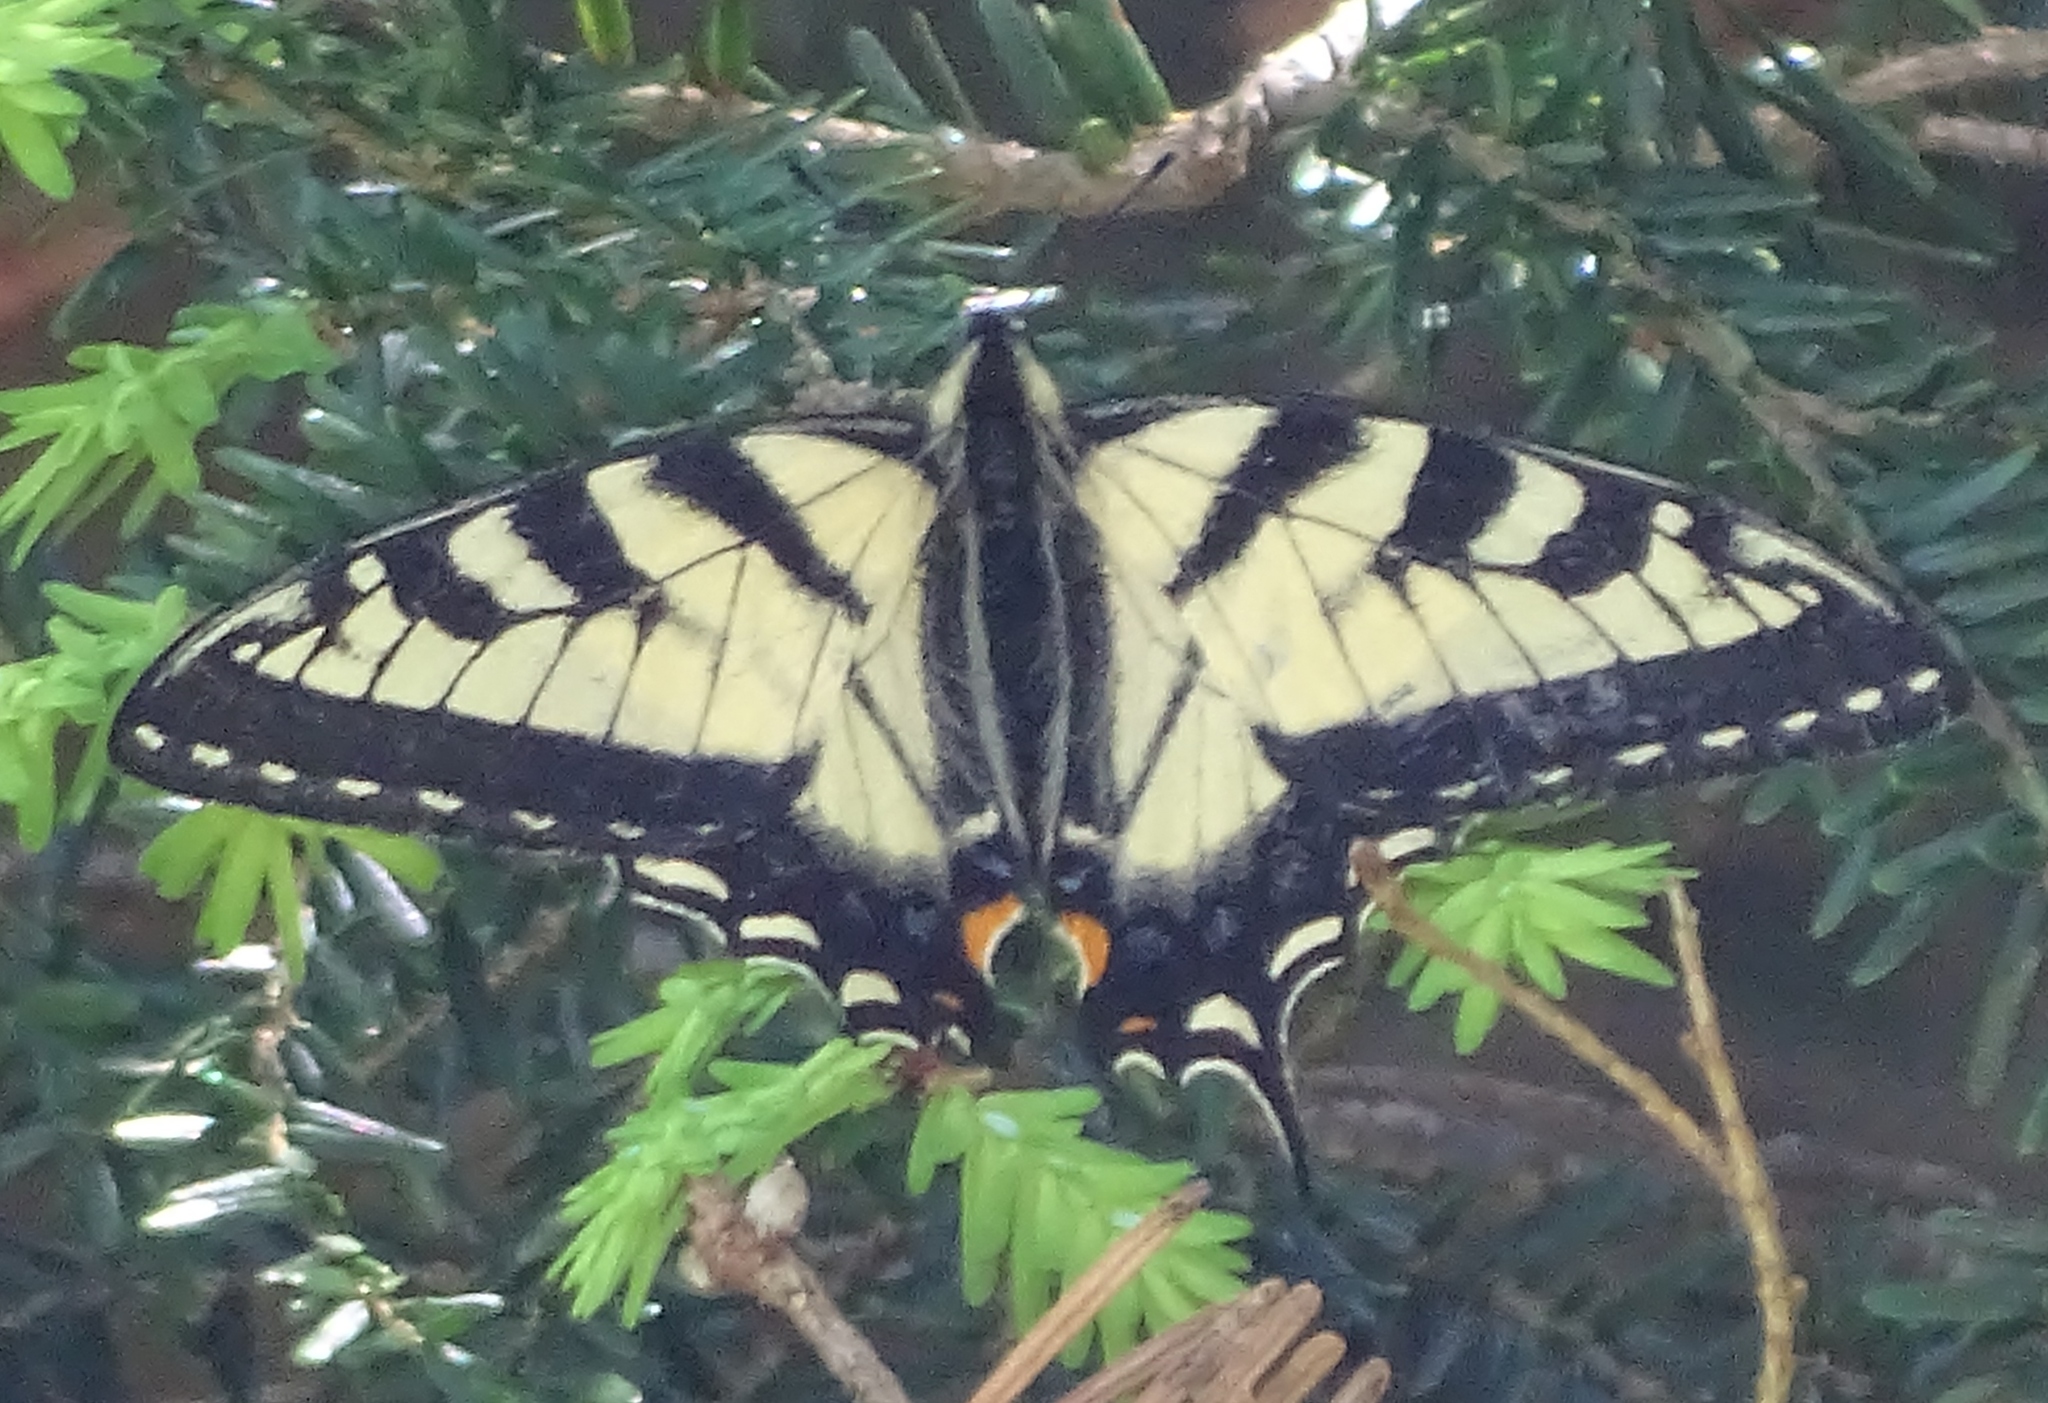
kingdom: Animalia
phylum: Arthropoda
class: Insecta
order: Lepidoptera
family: Papilionidae
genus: Papilio
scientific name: Papilio canadensis
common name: Canadian tiger swallowtail
